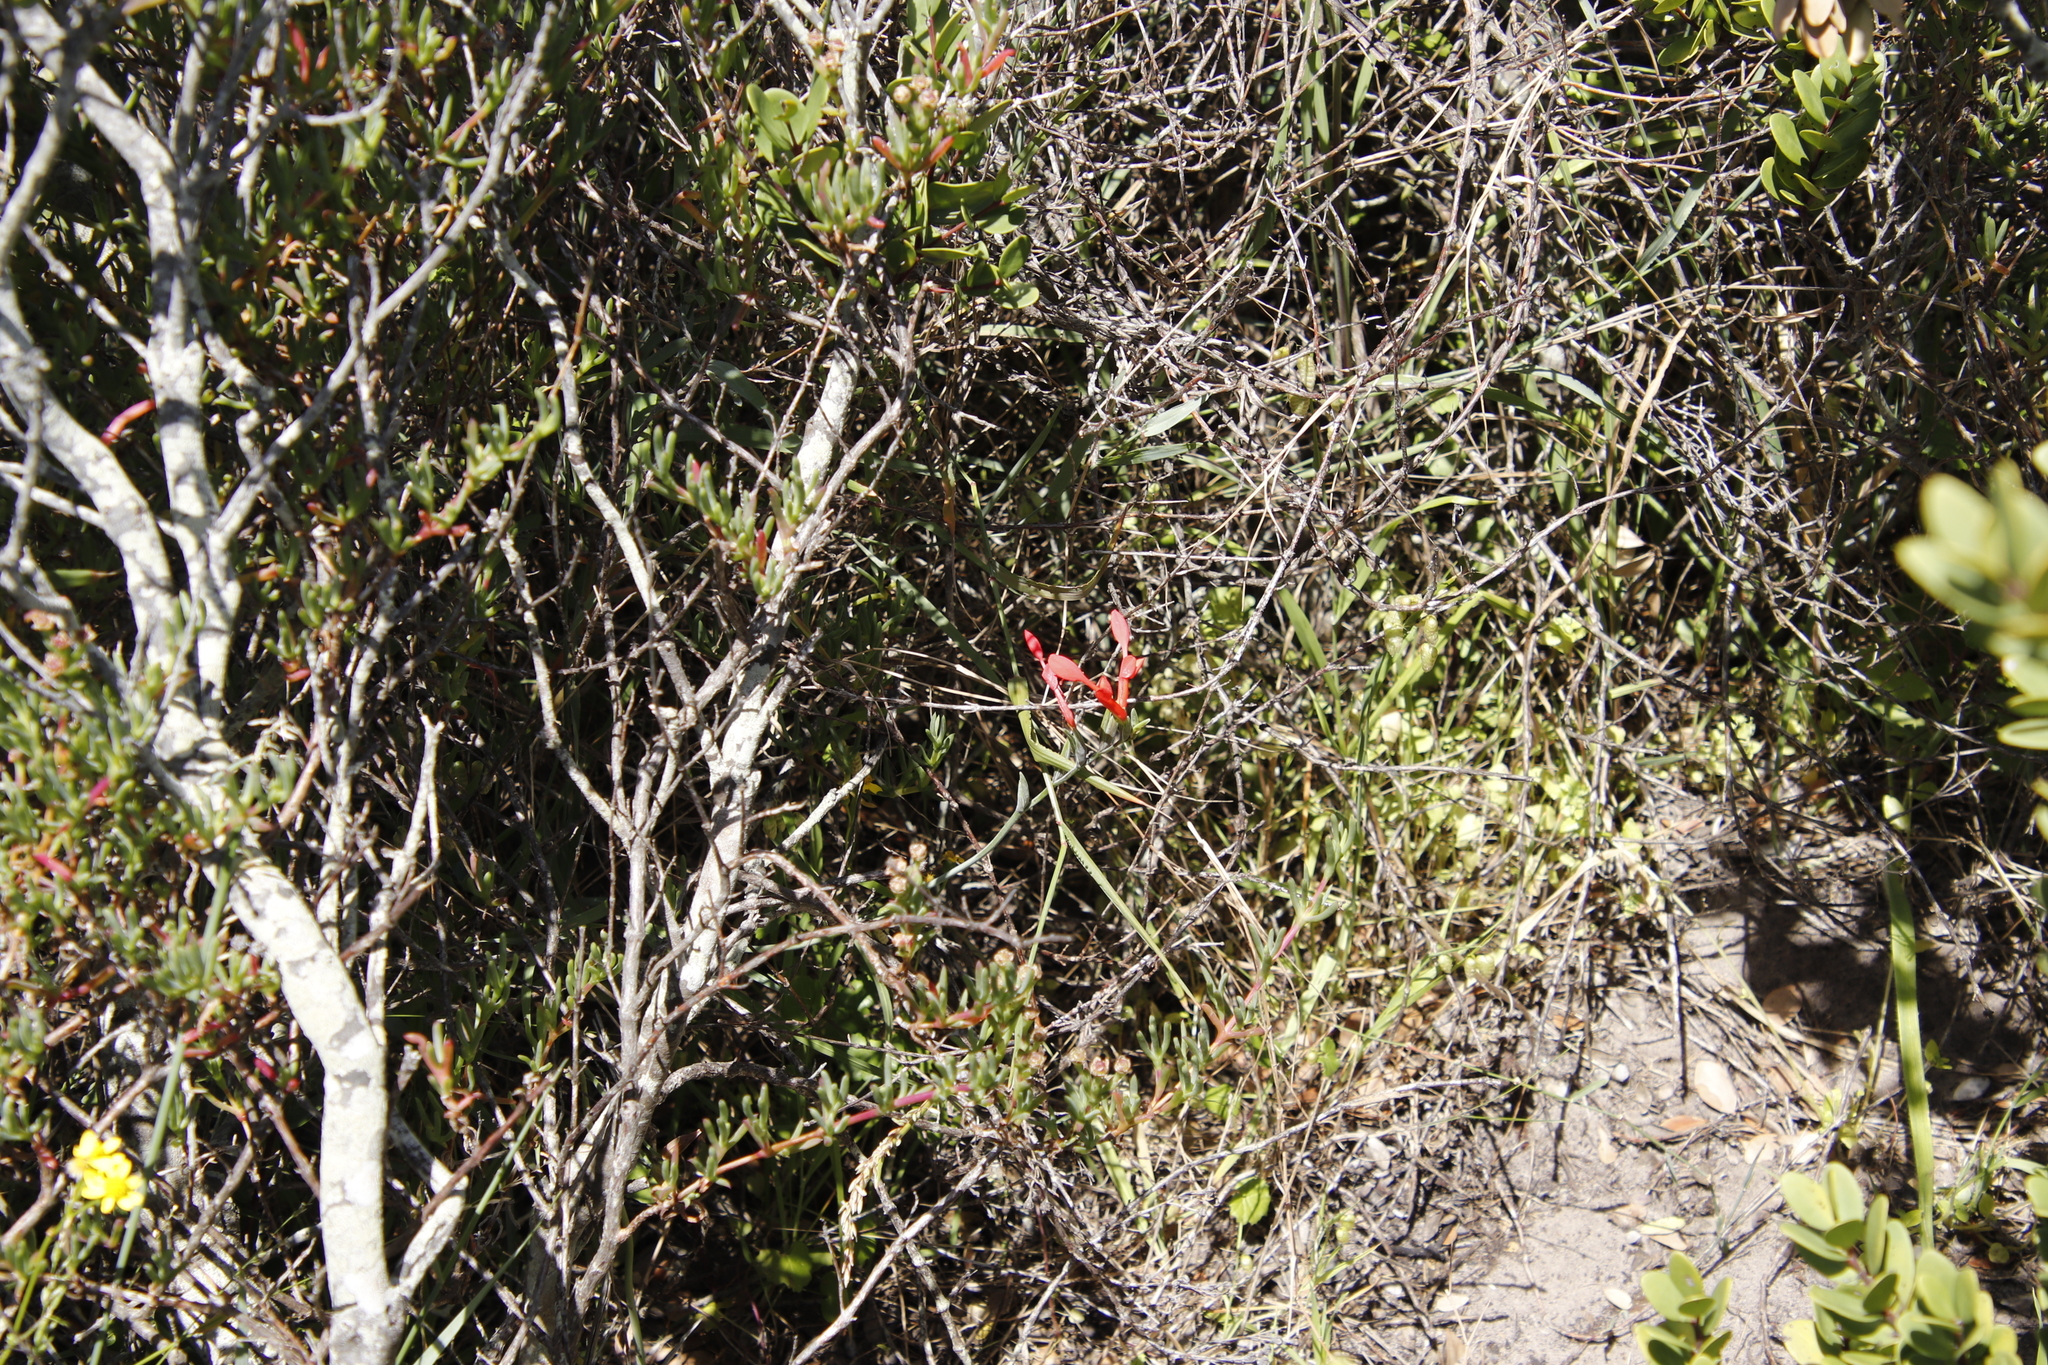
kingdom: Plantae
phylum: Tracheophyta
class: Liliopsida
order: Asparagales
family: Iridaceae
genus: Gladiolus
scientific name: Gladiolus cunonius
